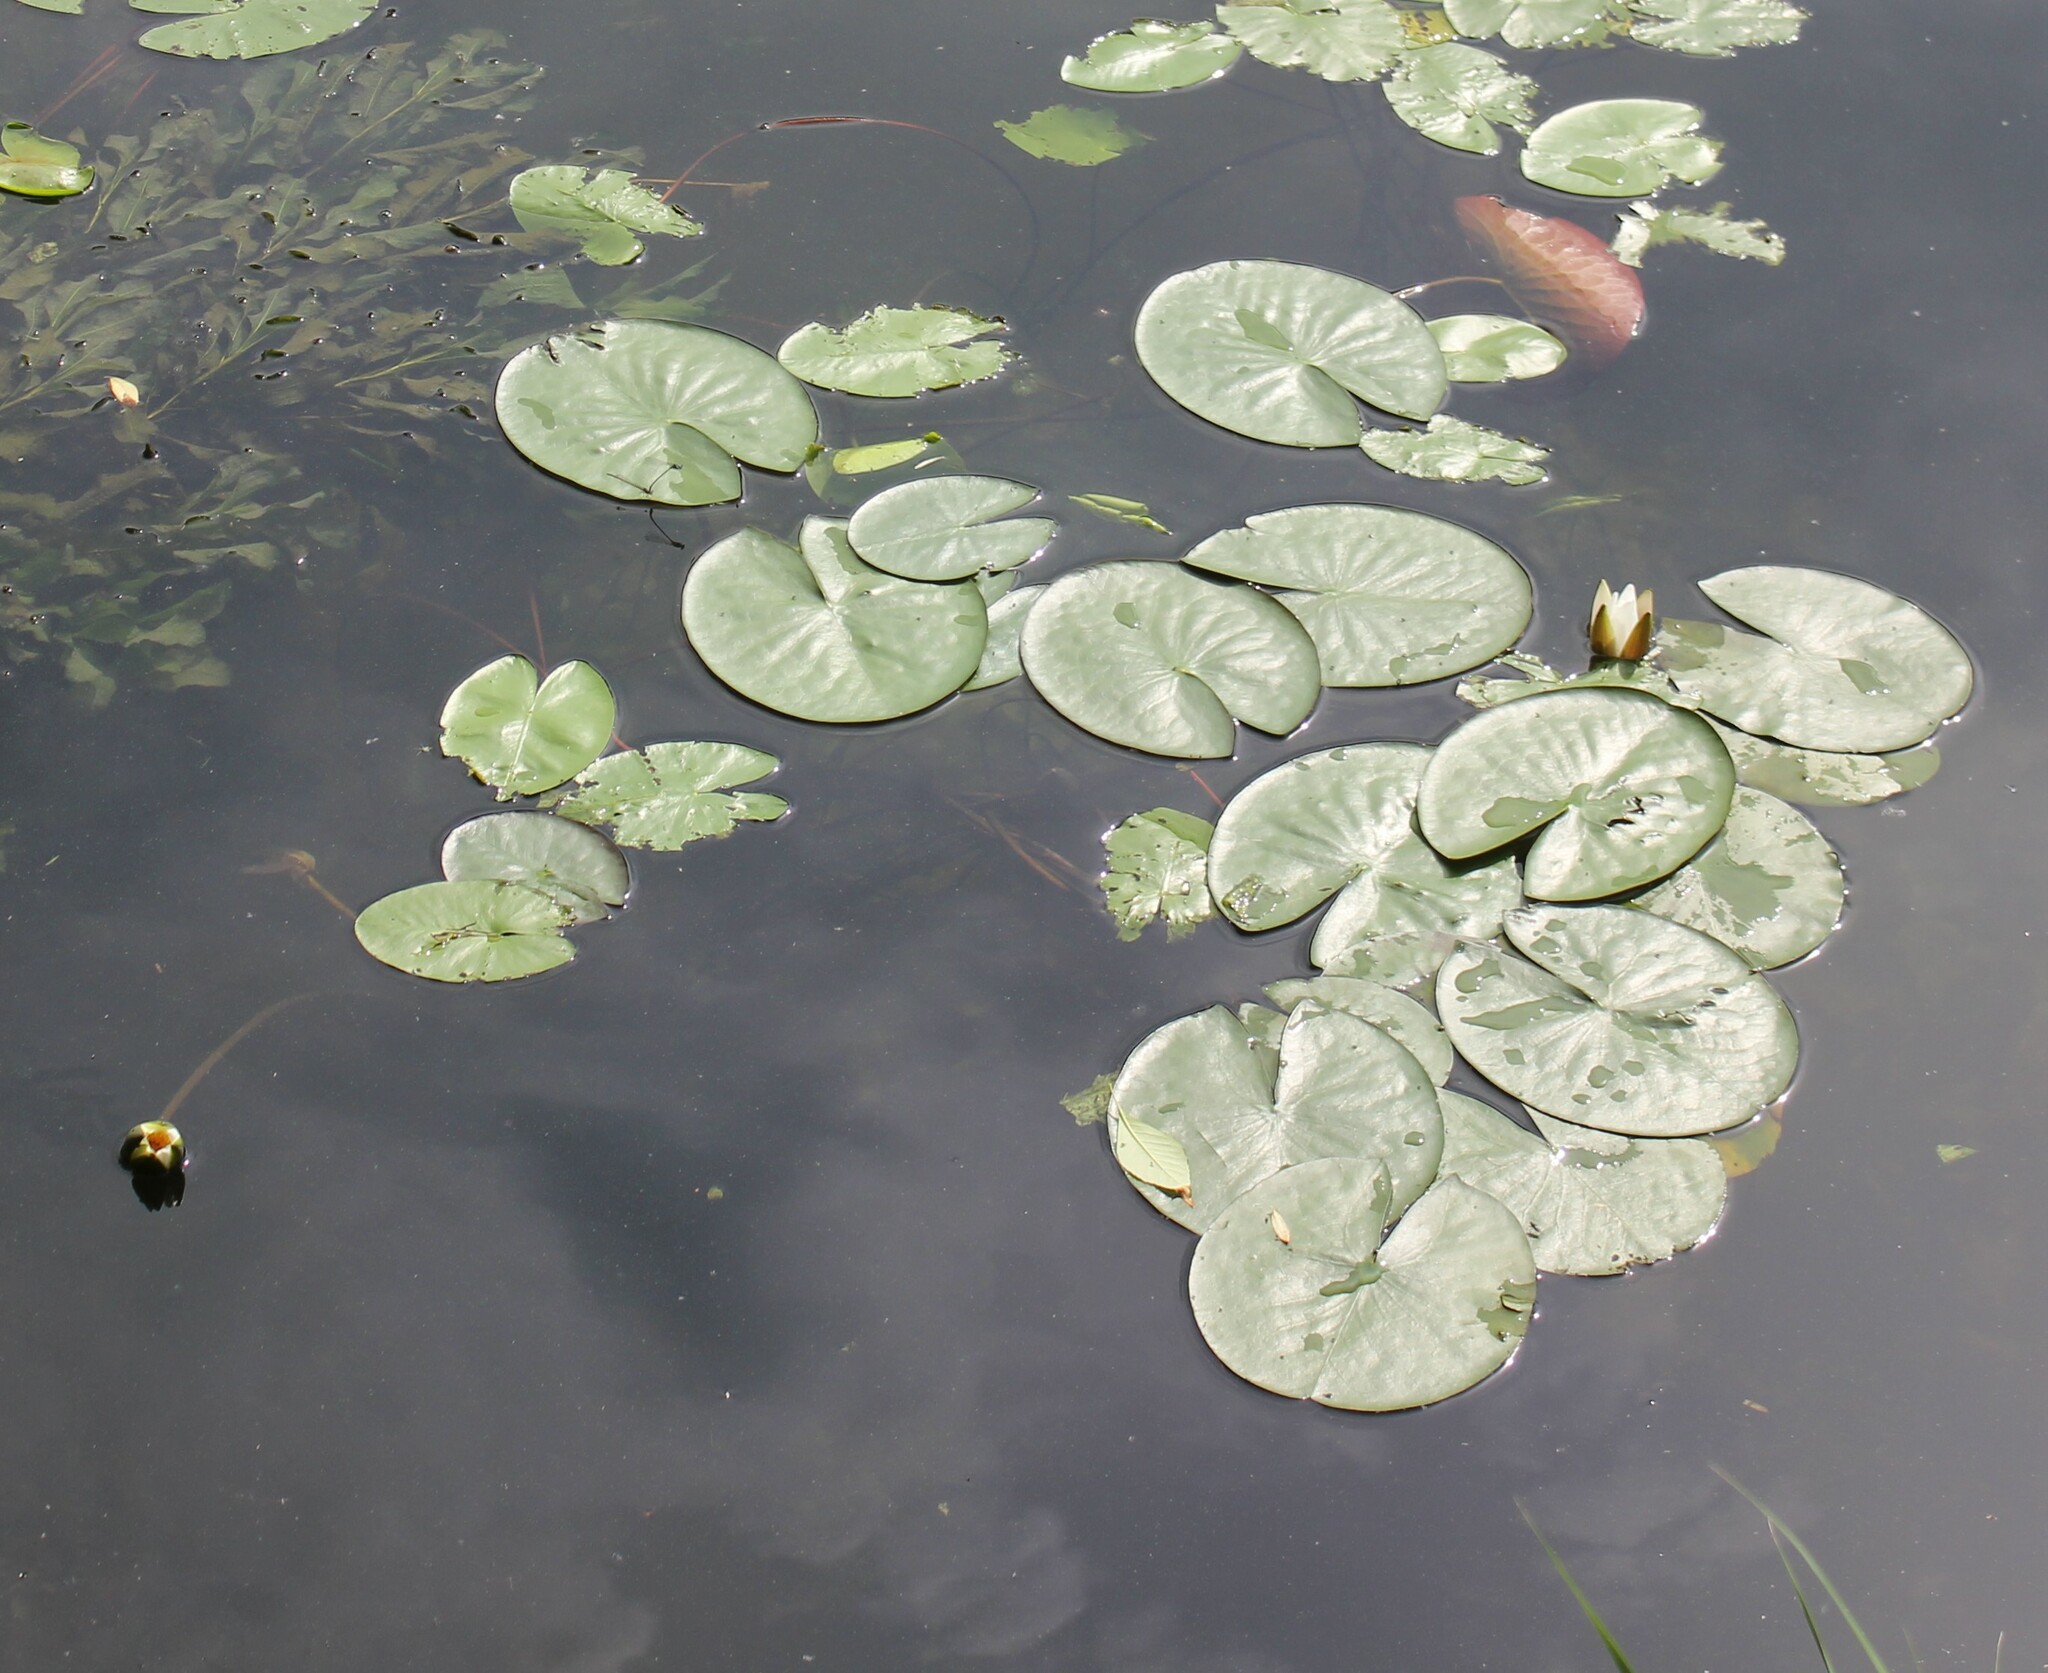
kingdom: Plantae
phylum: Tracheophyta
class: Magnoliopsida
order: Nymphaeales
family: Nymphaeaceae
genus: Nymphaea
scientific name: Nymphaea candida
